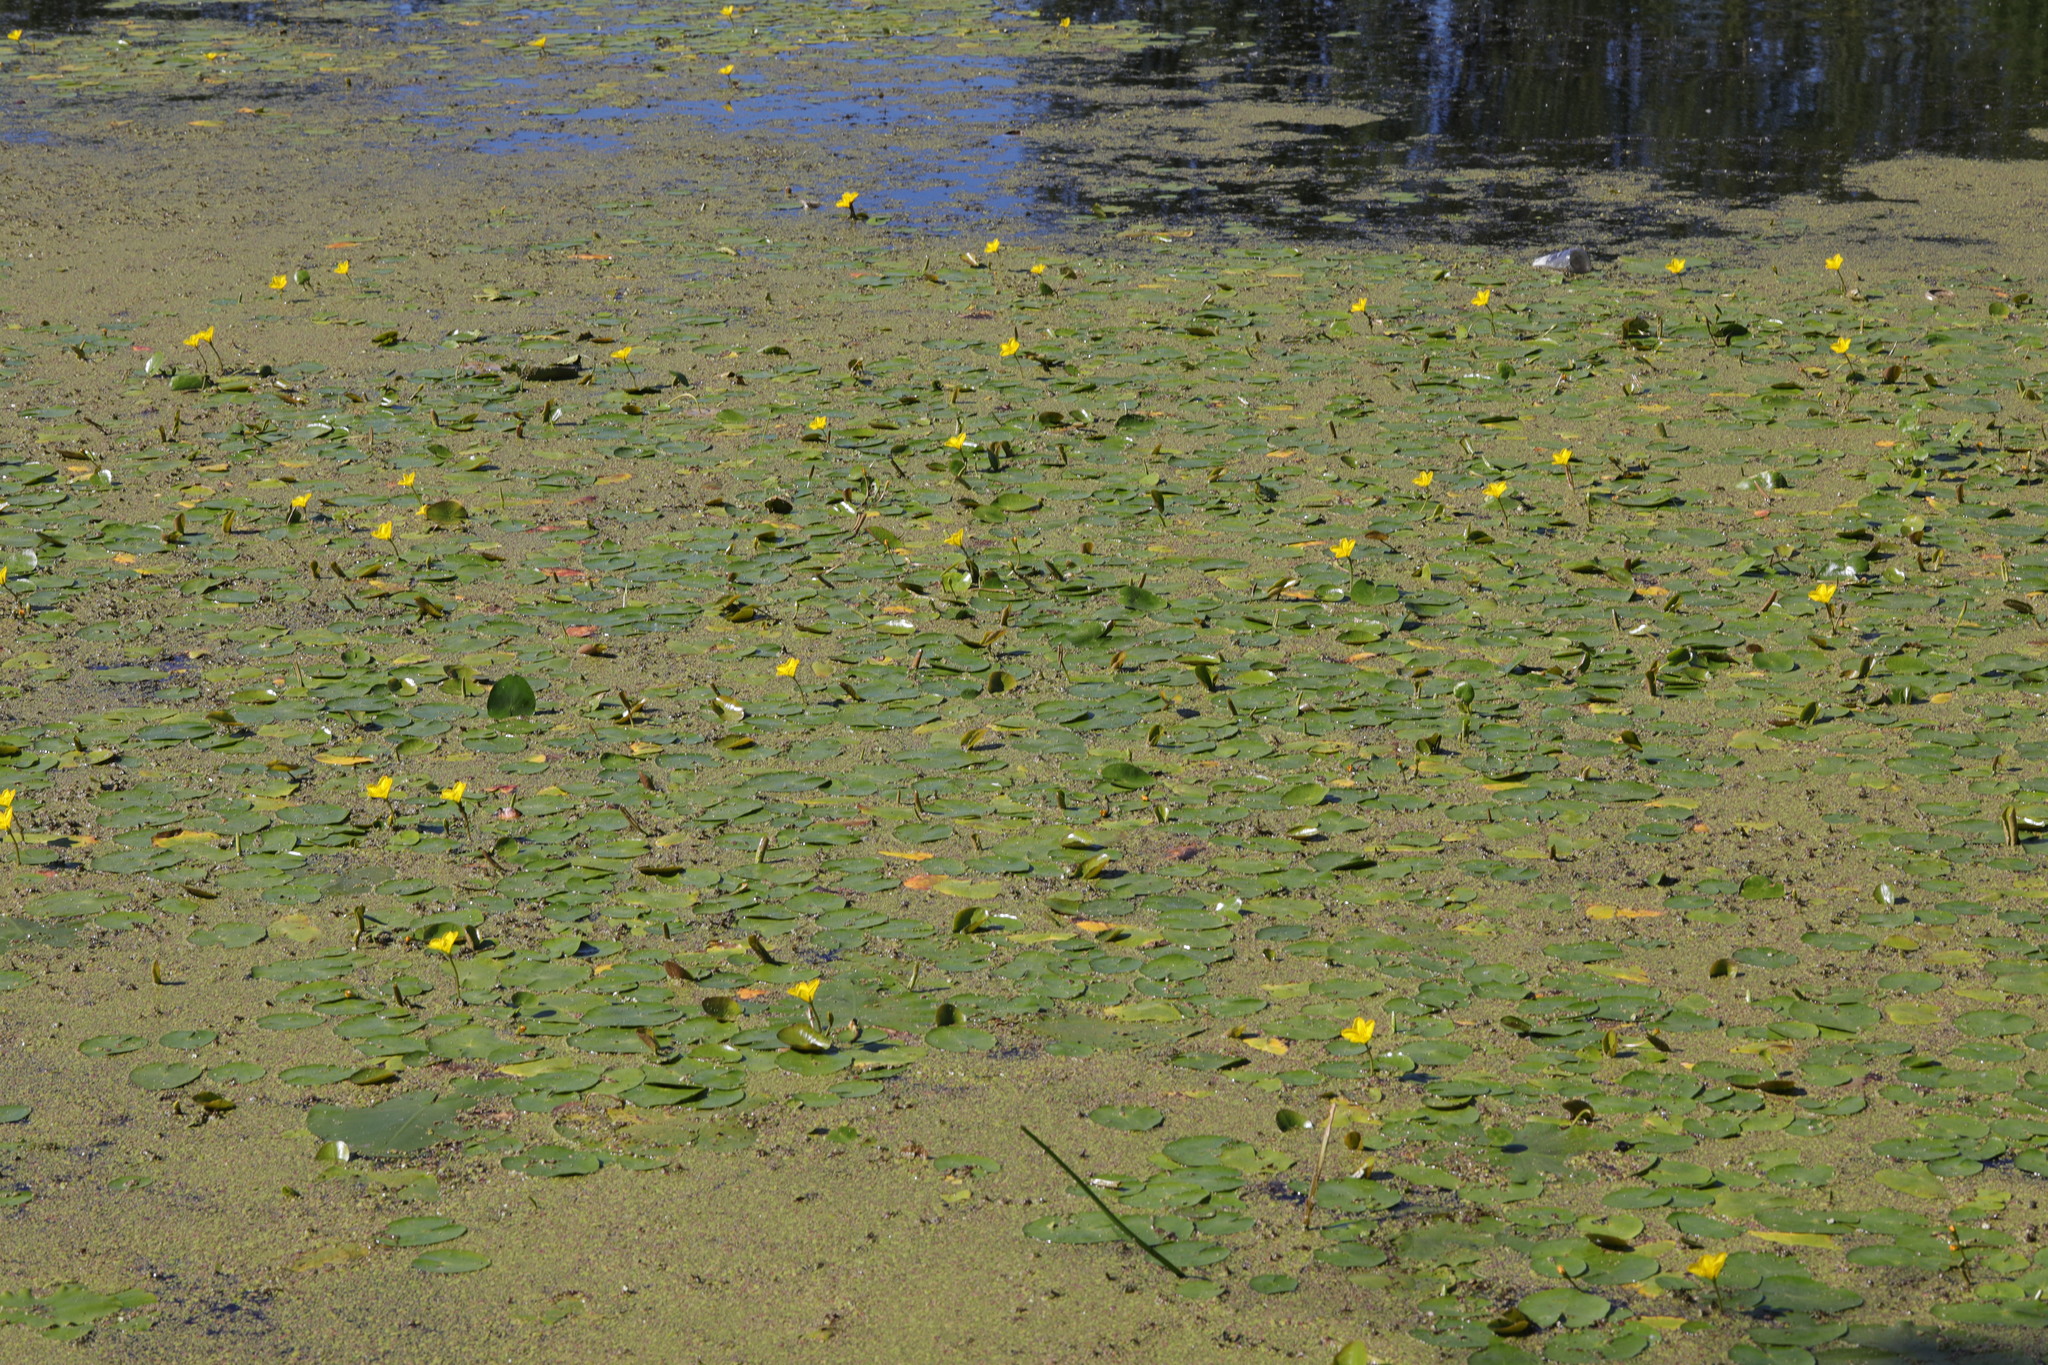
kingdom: Plantae
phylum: Tracheophyta
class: Magnoliopsida
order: Asterales
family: Menyanthaceae
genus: Nymphoides
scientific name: Nymphoides peltata
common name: Fringed water-lily
